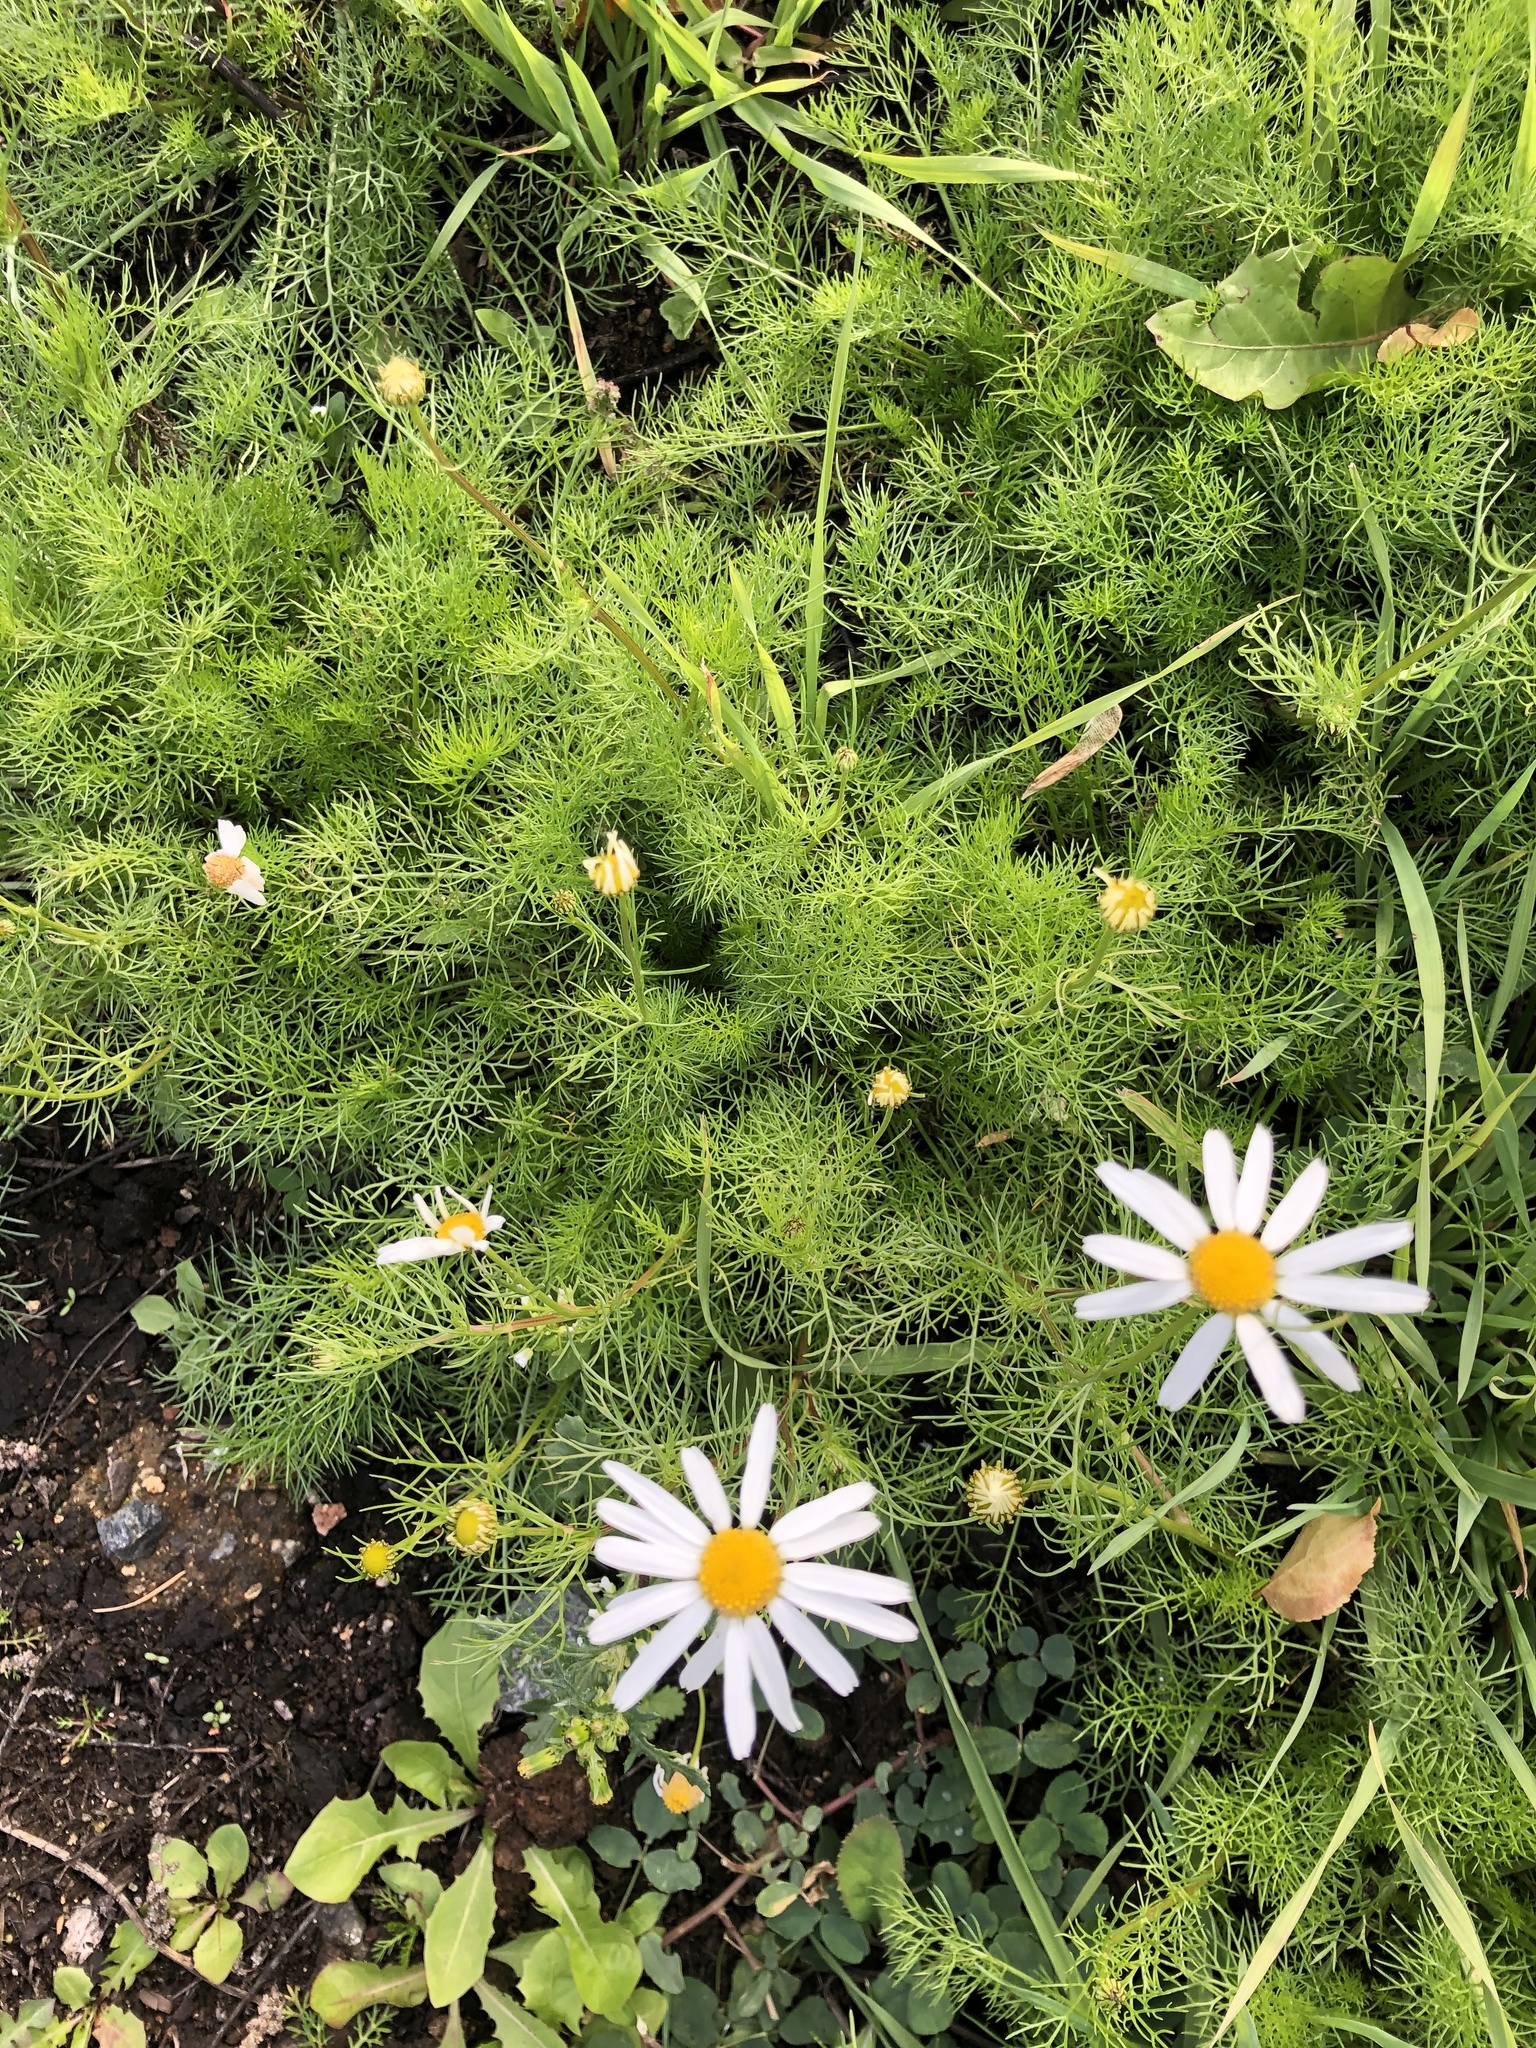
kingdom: Plantae
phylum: Tracheophyta
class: Magnoliopsida
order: Asterales
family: Asteraceae
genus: Tripleurospermum
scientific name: Tripleurospermum inodorum
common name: Scentless mayweed
